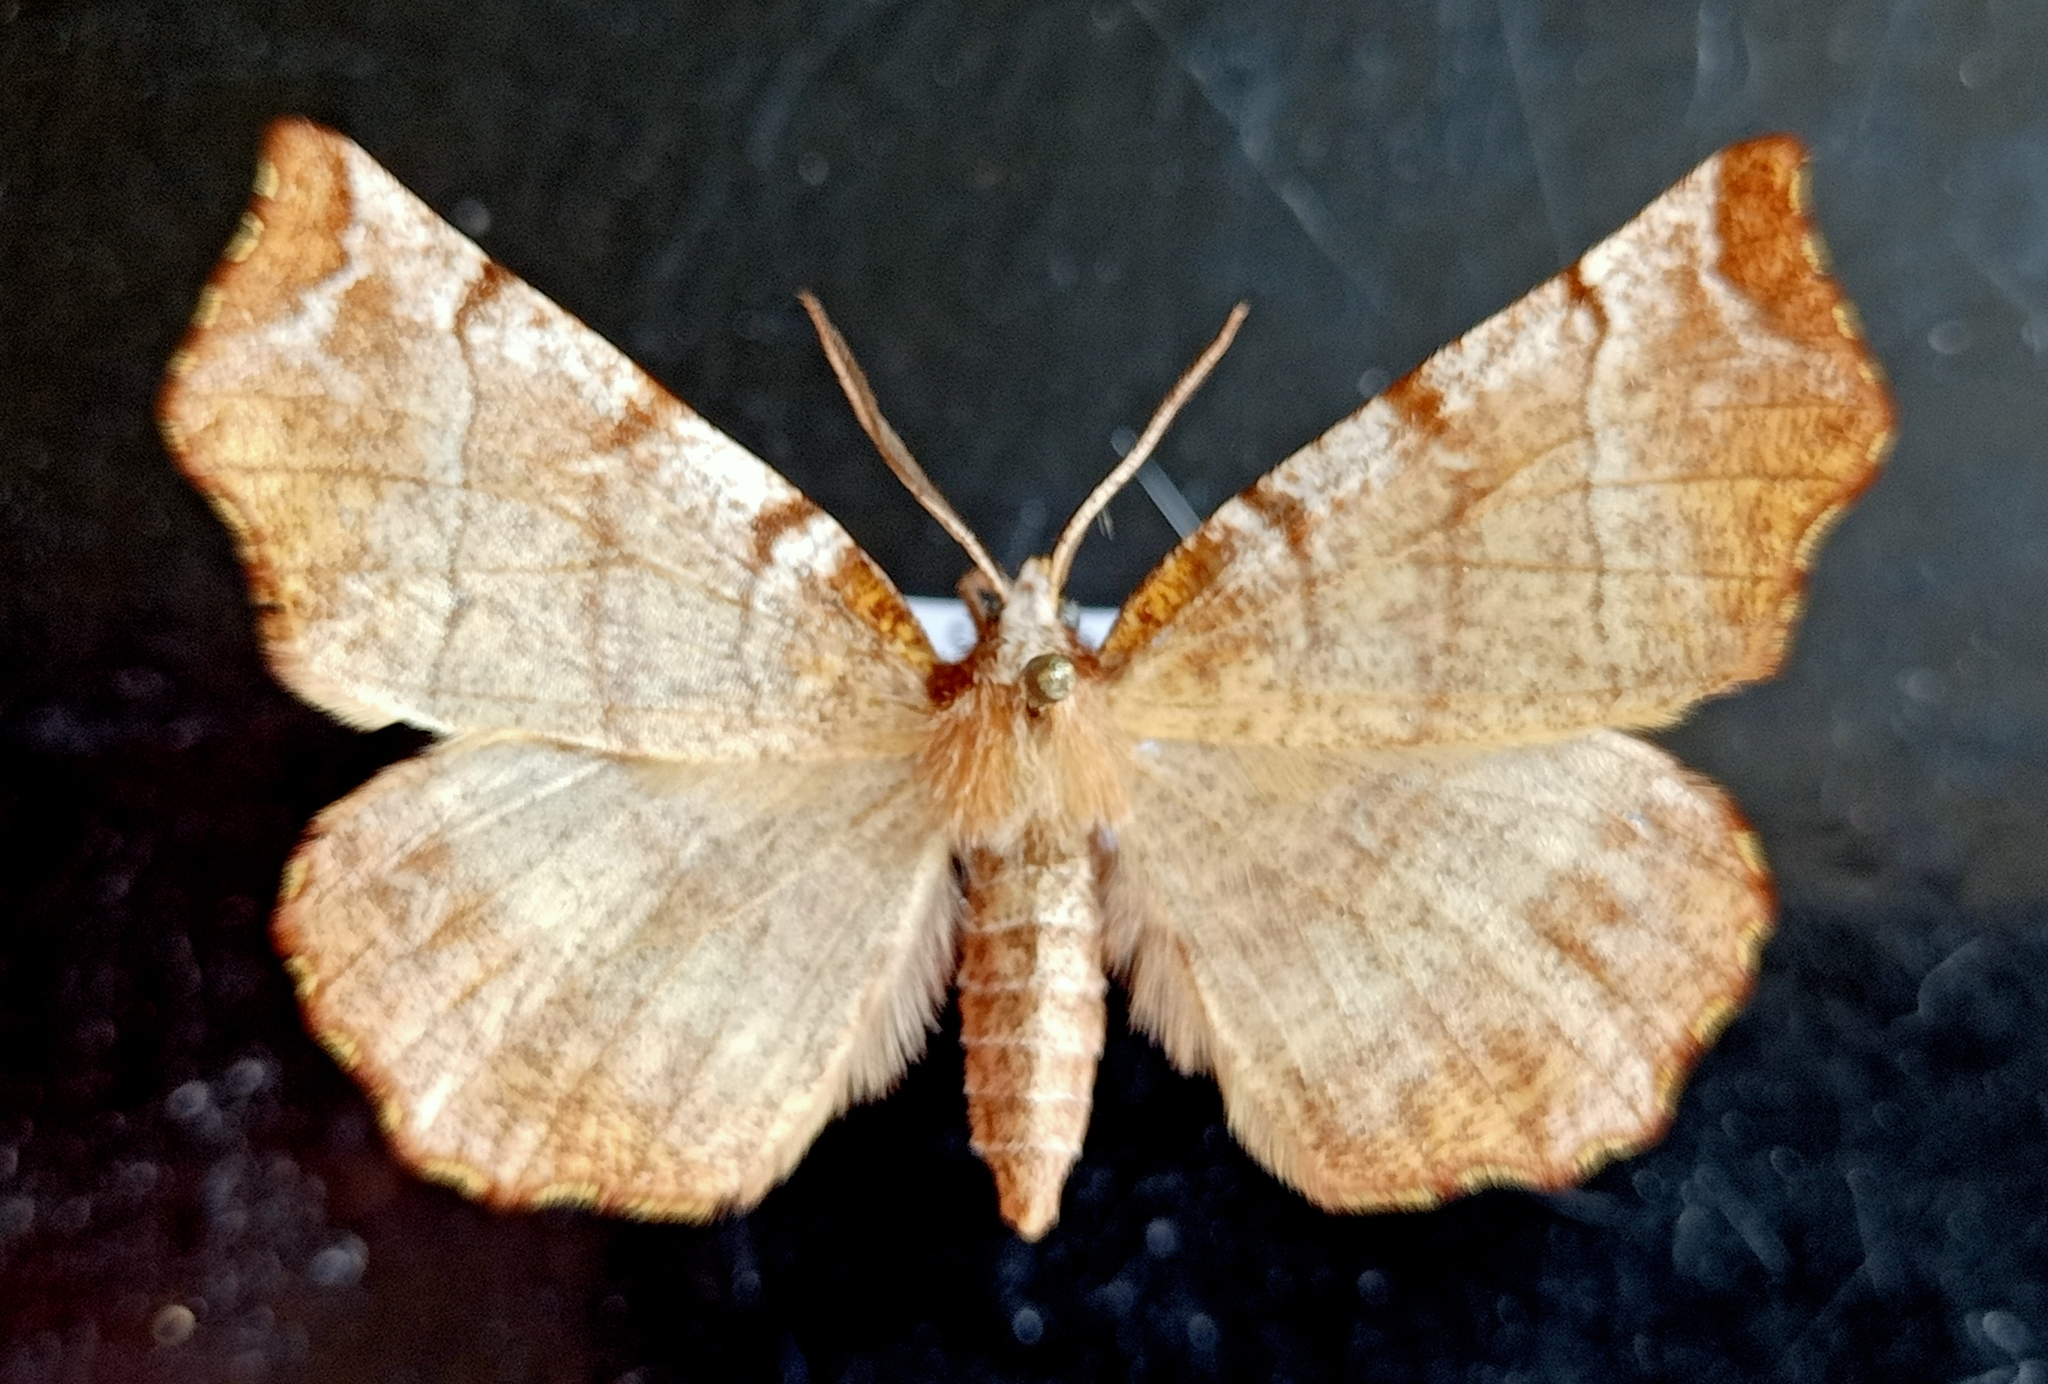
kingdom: Animalia
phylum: Arthropoda
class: Insecta
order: Lepidoptera
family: Geometridae
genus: Selenia
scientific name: Selenia dentaria
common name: Early thorn
